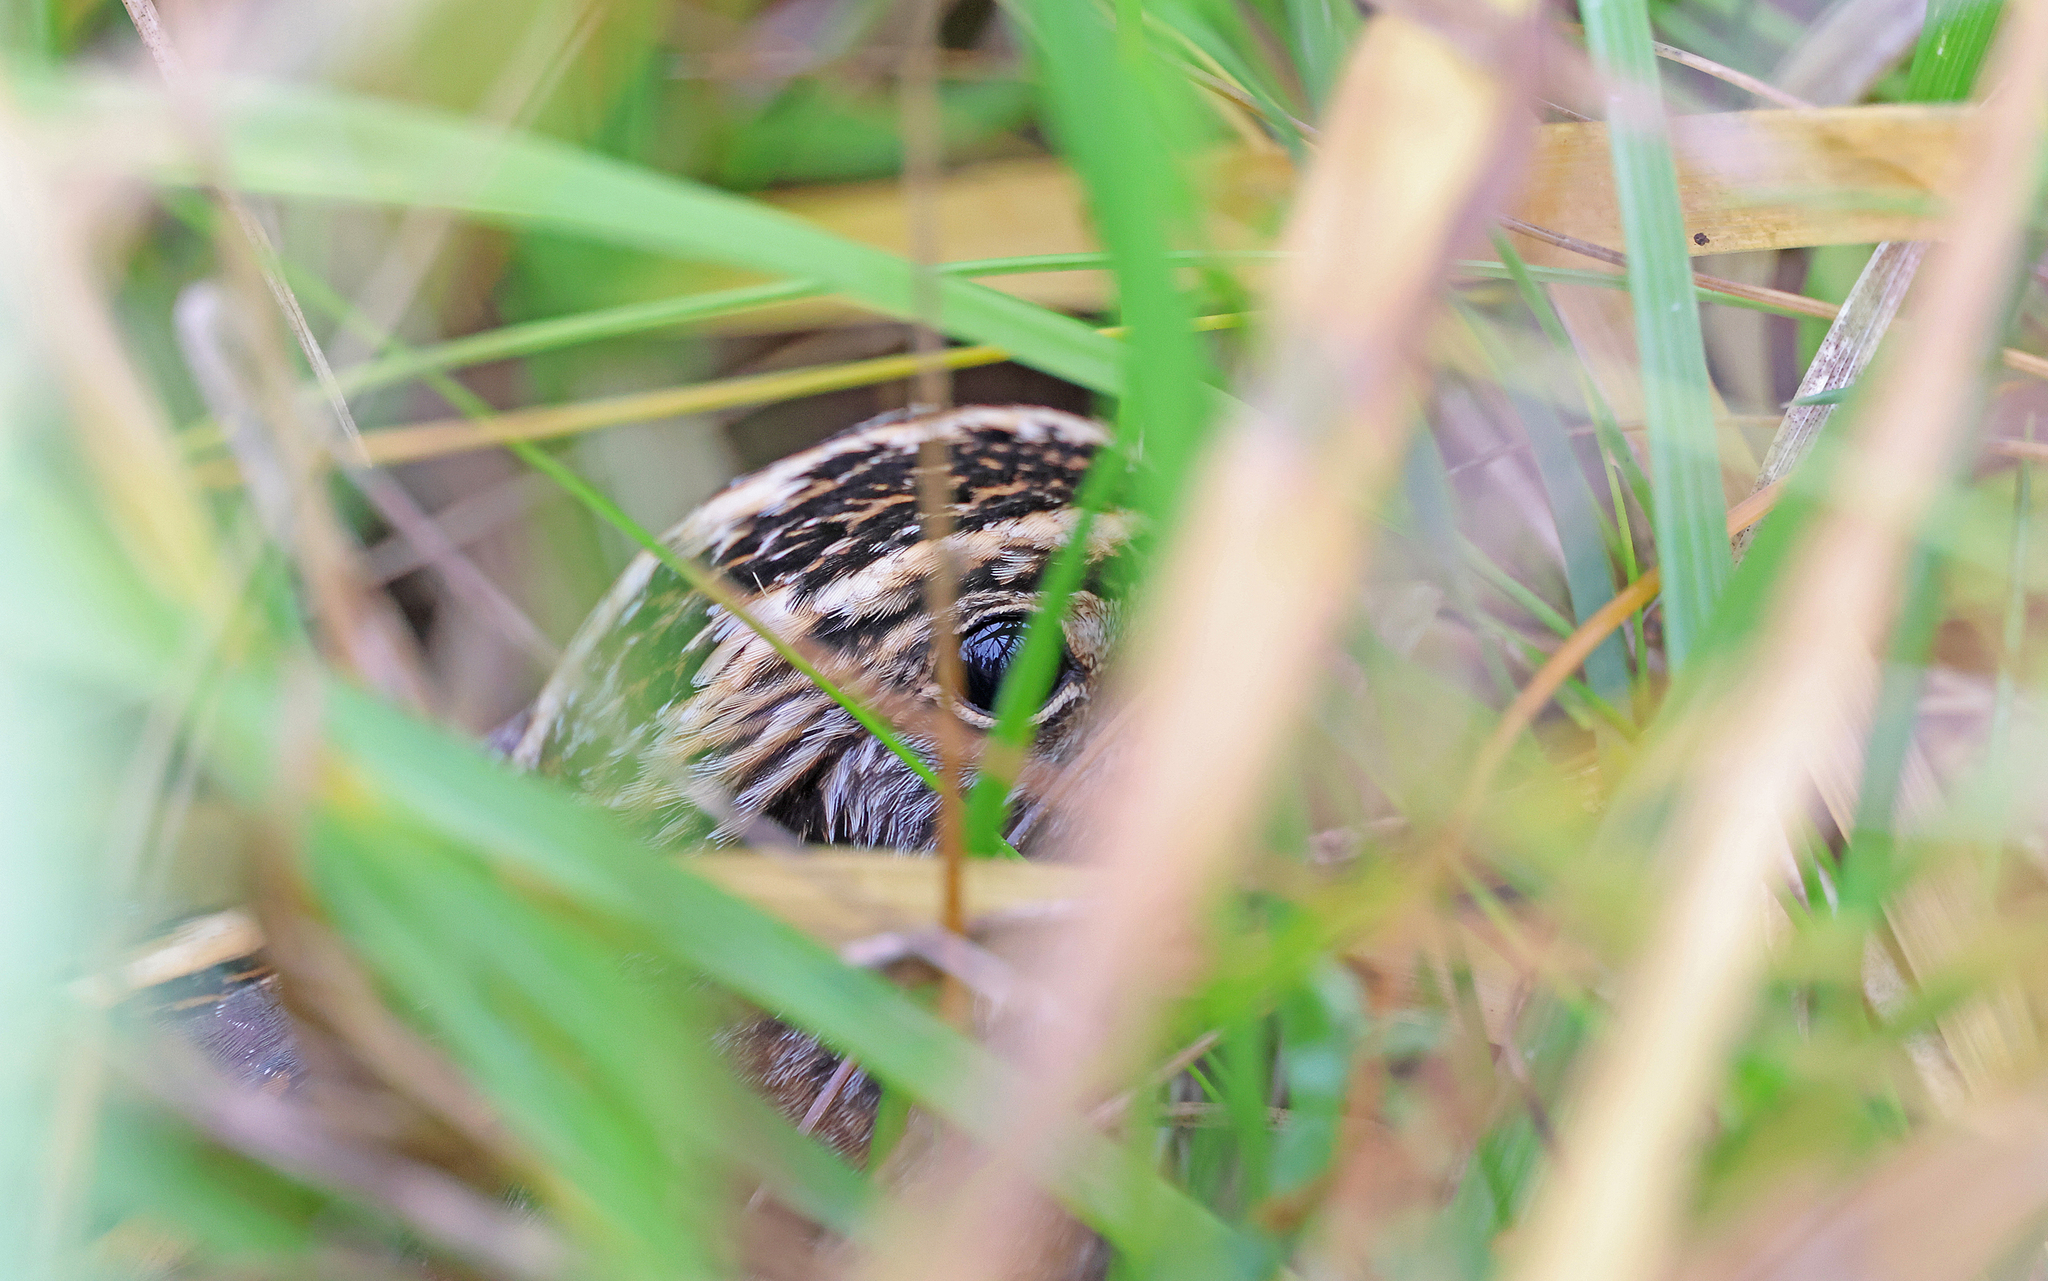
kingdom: Animalia
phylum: Chordata
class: Aves
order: Charadriiformes
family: Scolopacidae
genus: Lymnocryptes
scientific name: Lymnocryptes minimus
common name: Jack snipe
